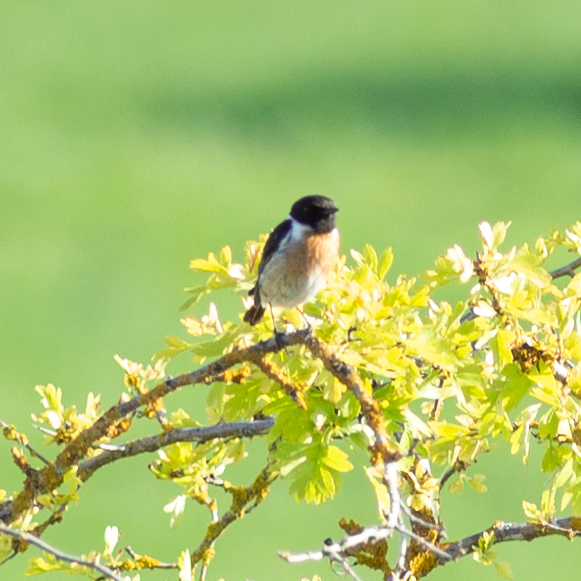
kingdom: Animalia
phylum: Chordata
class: Aves
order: Passeriformes
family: Muscicapidae
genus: Saxicola
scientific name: Saxicola rubicola
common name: European stonechat
